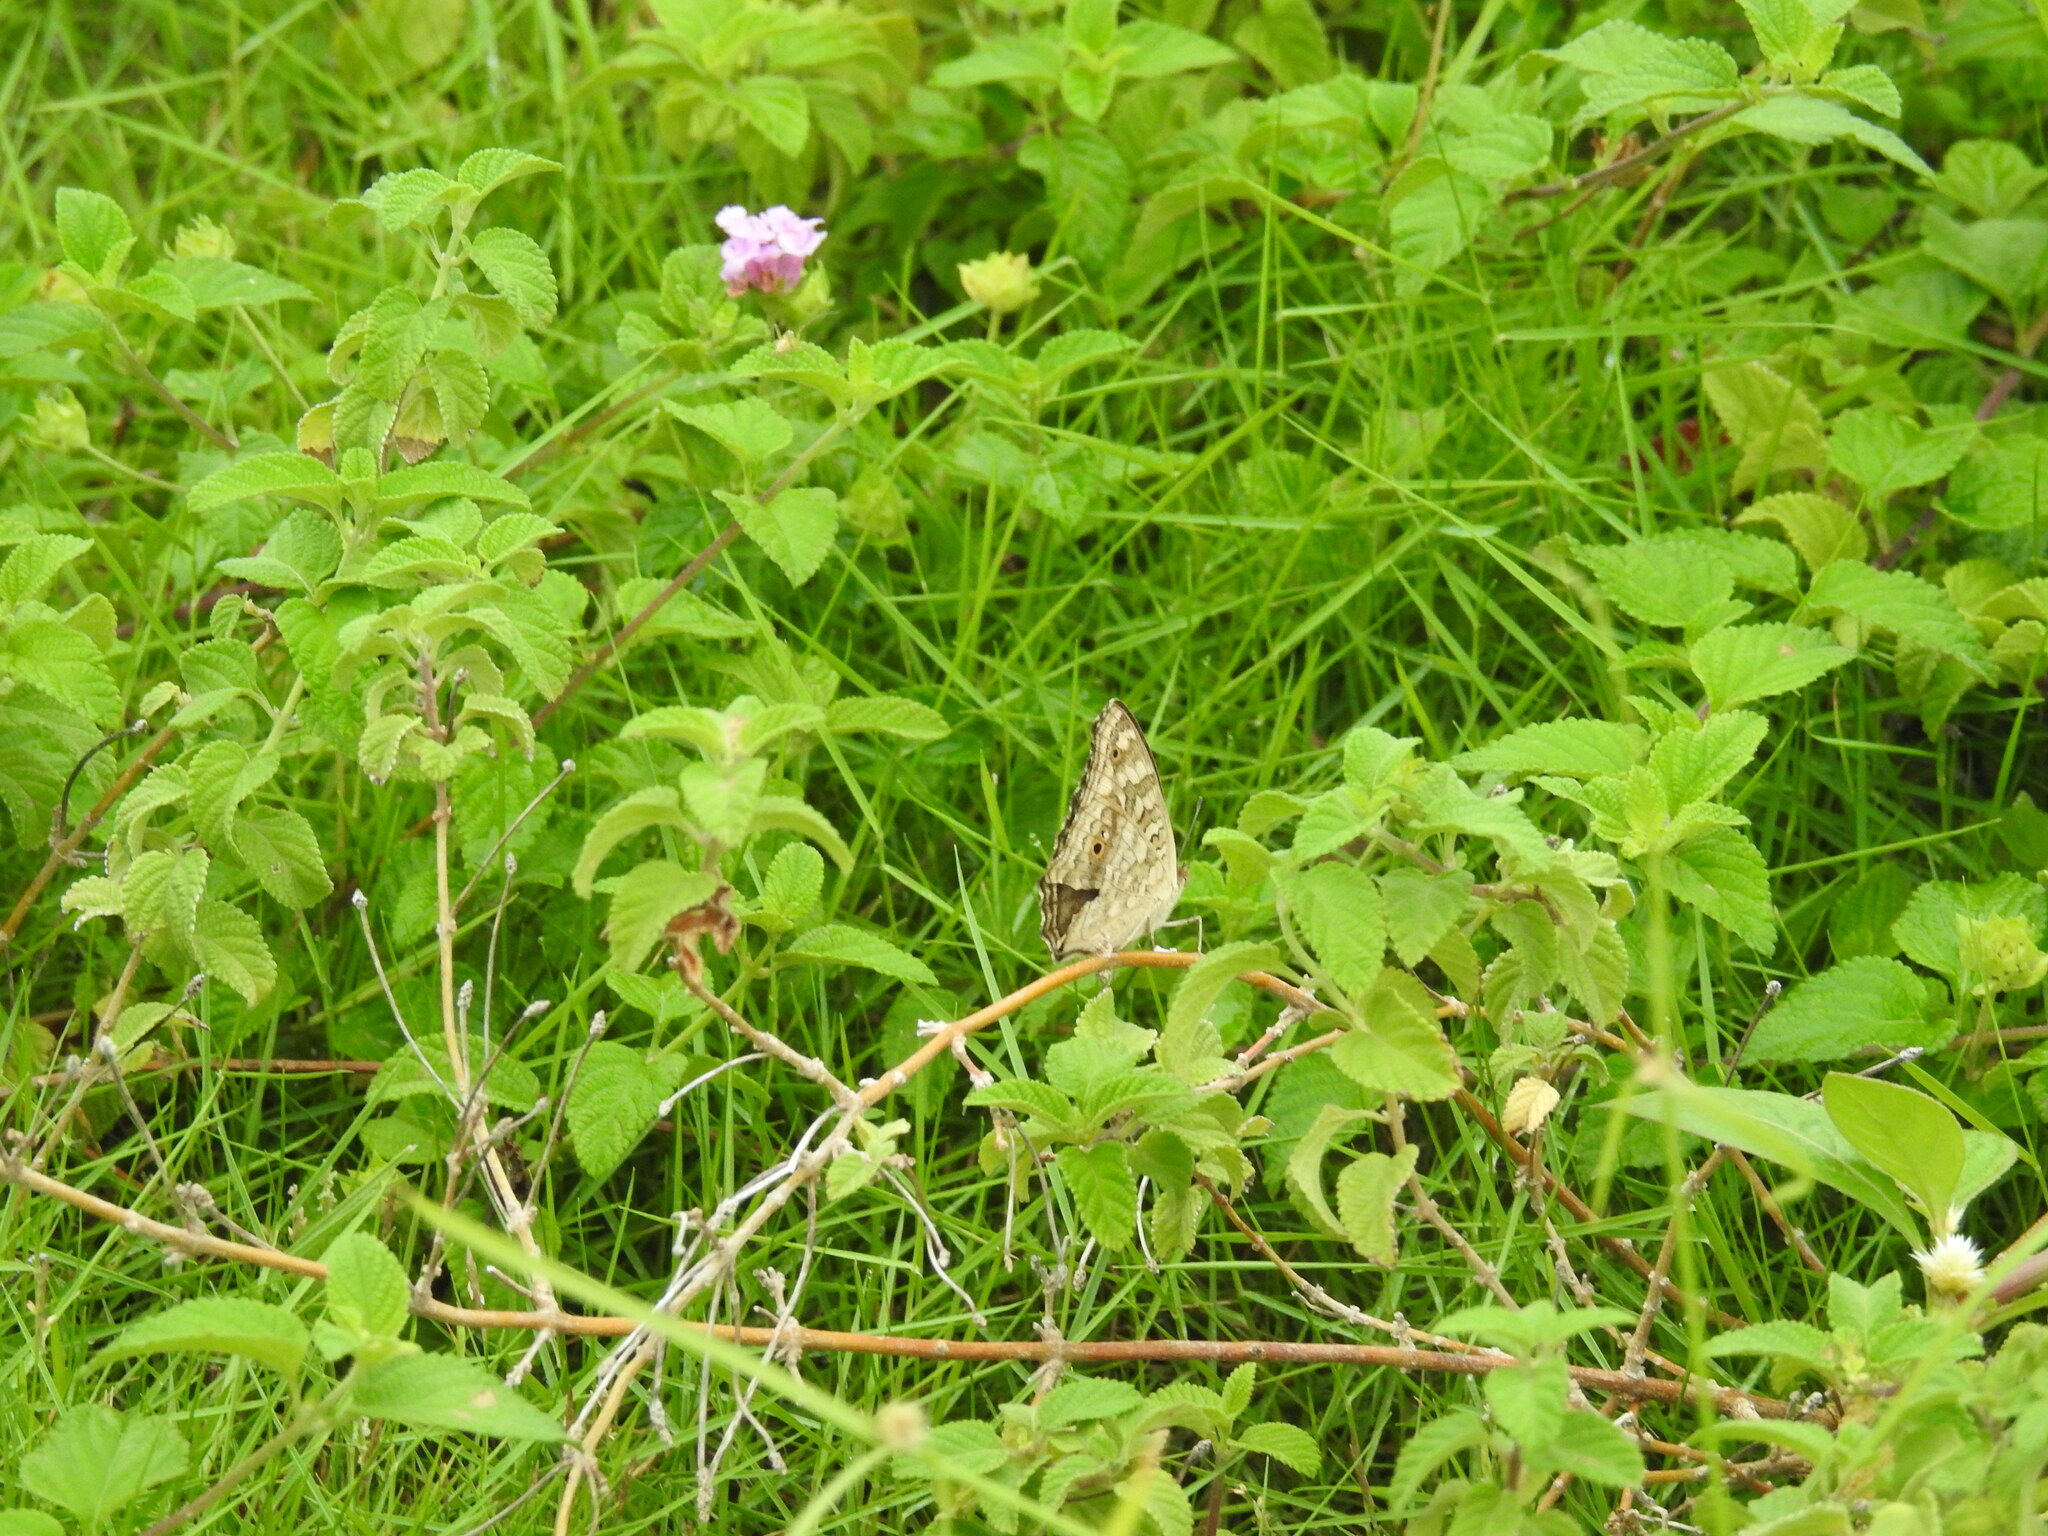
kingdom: Animalia
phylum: Arthropoda
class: Insecta
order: Lepidoptera
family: Nymphalidae
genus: Junonia
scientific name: Junonia lemonias
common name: Lemon pansy
